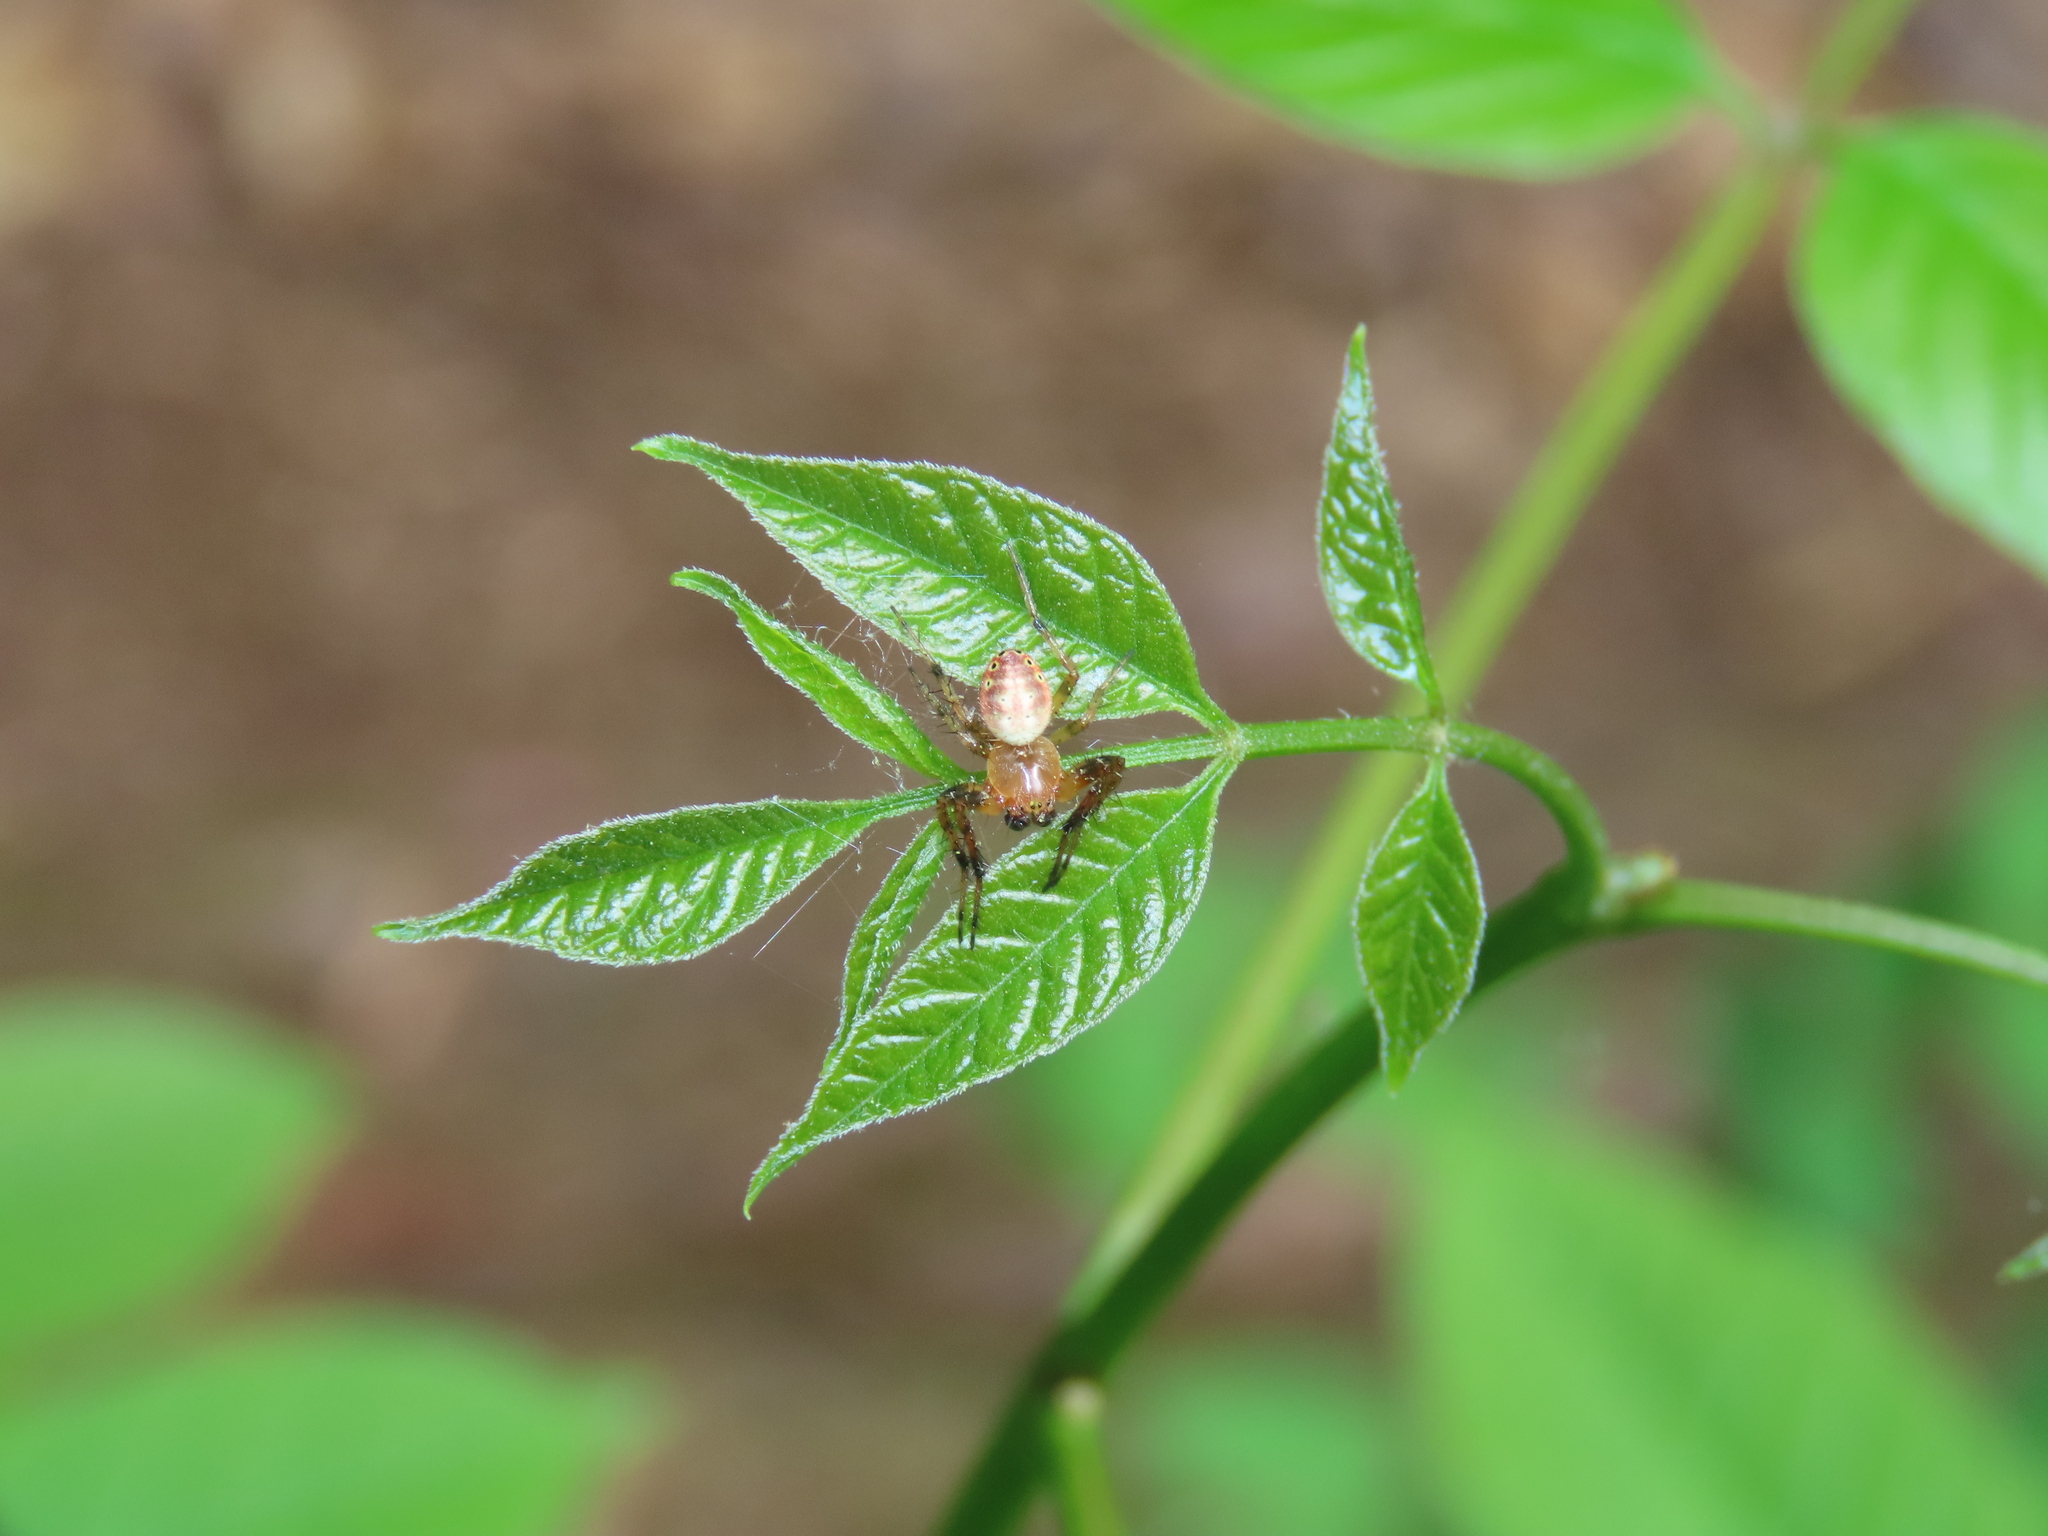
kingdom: Animalia
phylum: Arthropoda
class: Arachnida
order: Araneae
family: Araneidae
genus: Araniella
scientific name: Araniella displicata
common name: Sixspotted orb weaver
